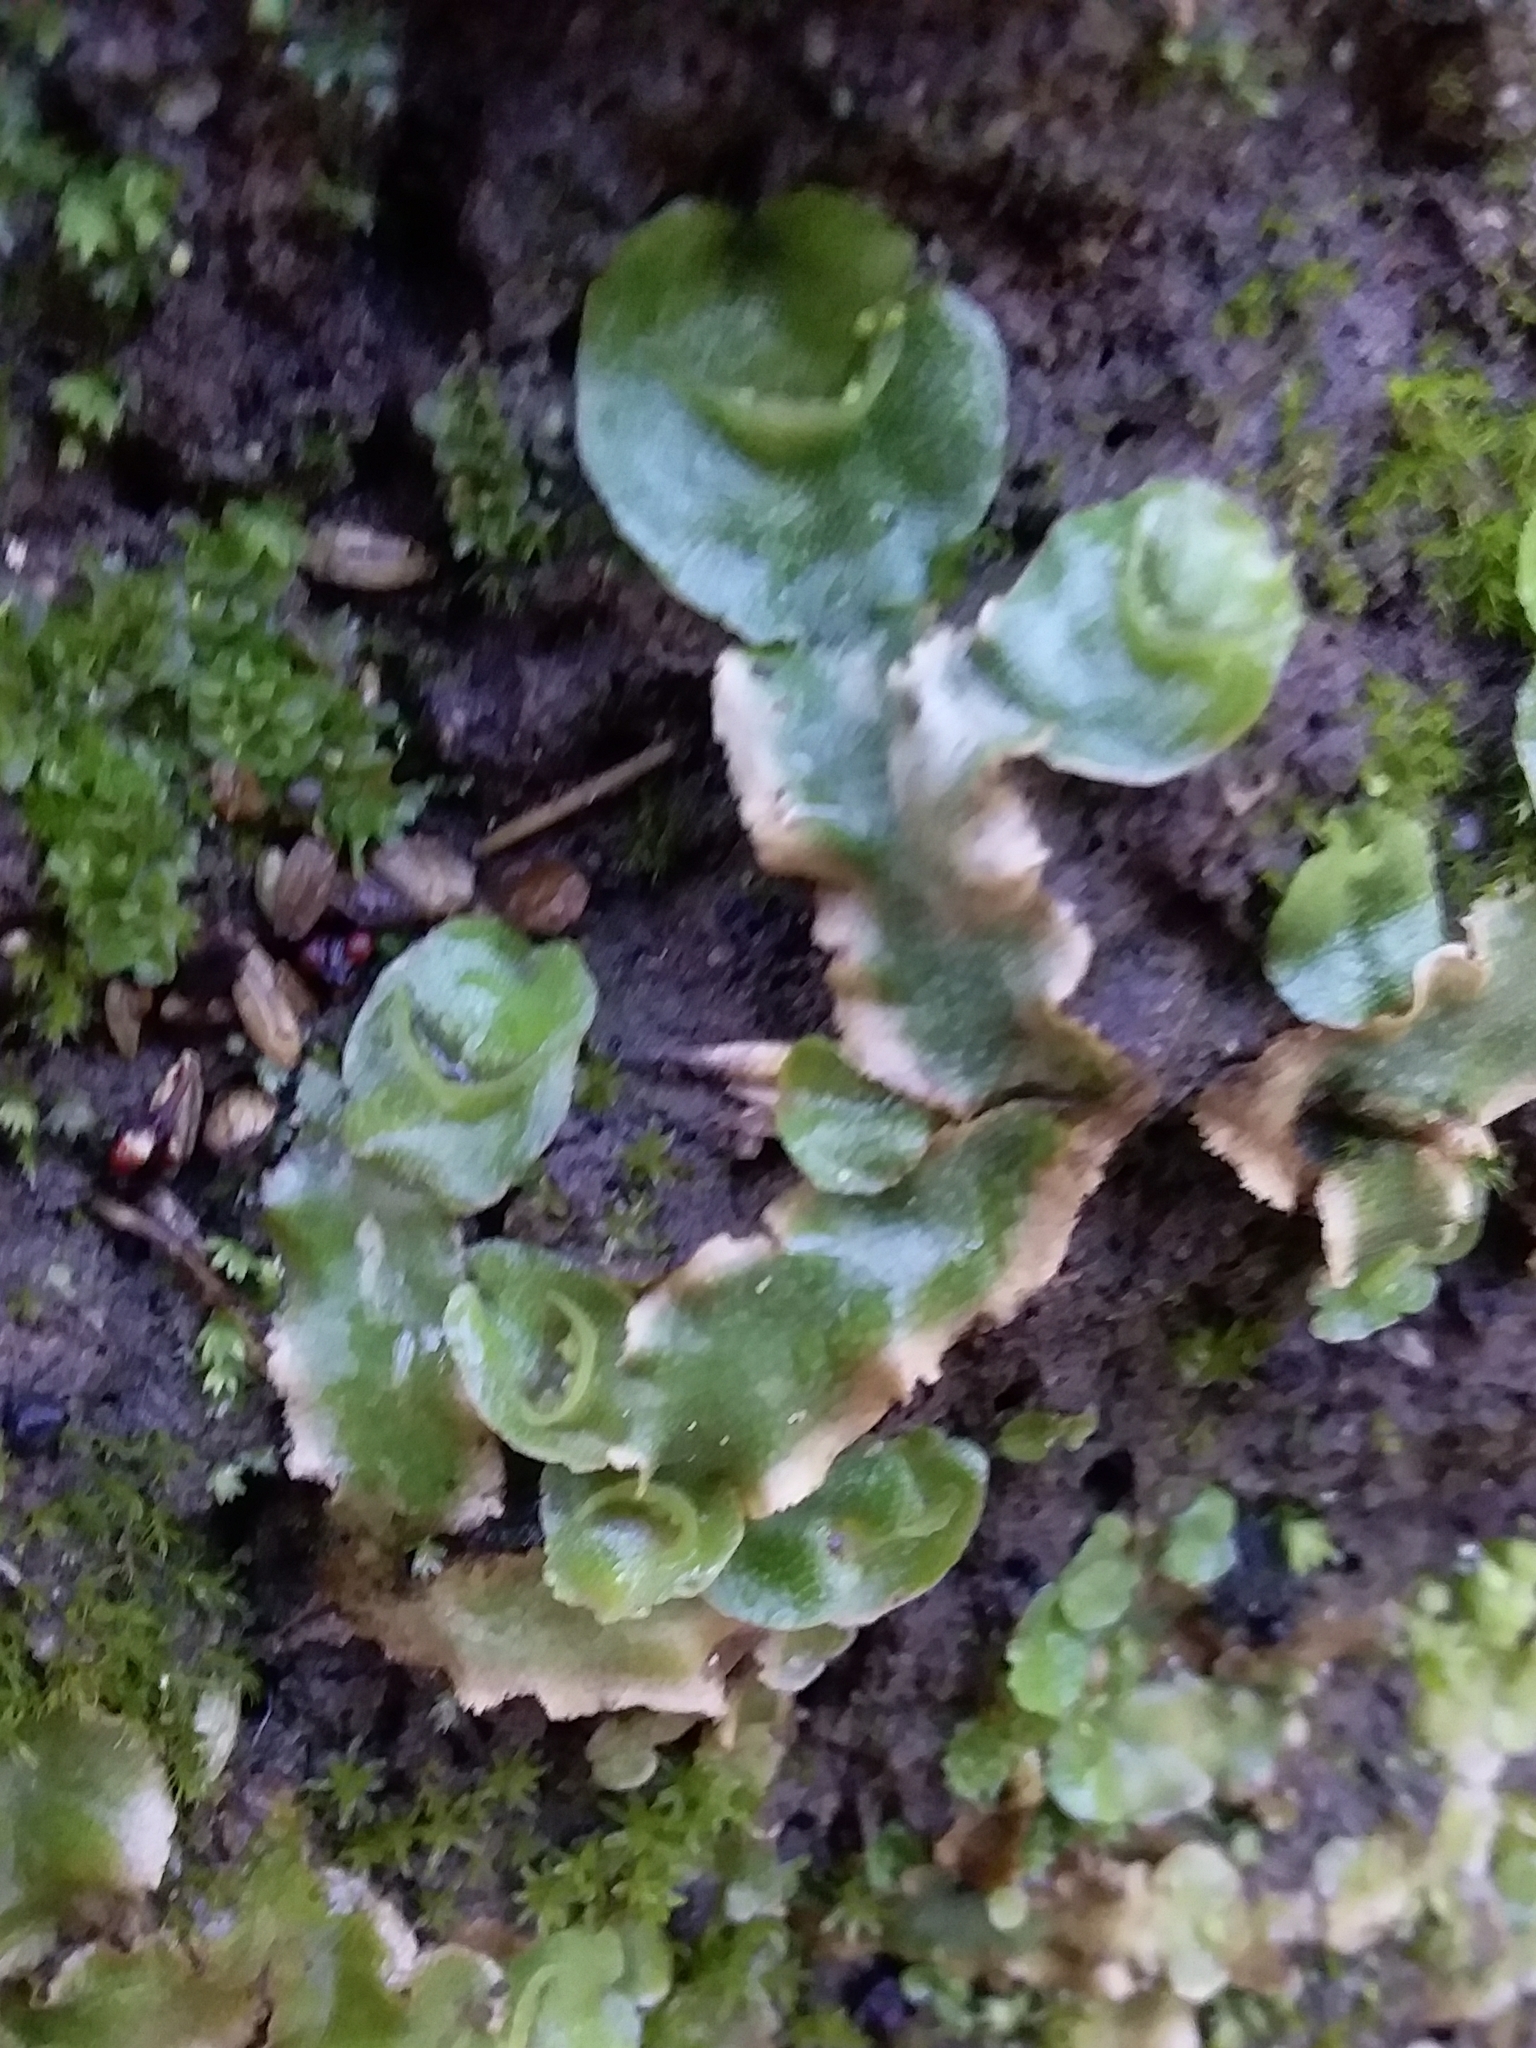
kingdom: Plantae
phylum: Marchantiophyta
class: Marchantiopsida
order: Lunulariales
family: Lunulariaceae
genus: Lunularia
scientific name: Lunularia cruciata
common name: Crescent-cup liverwort
